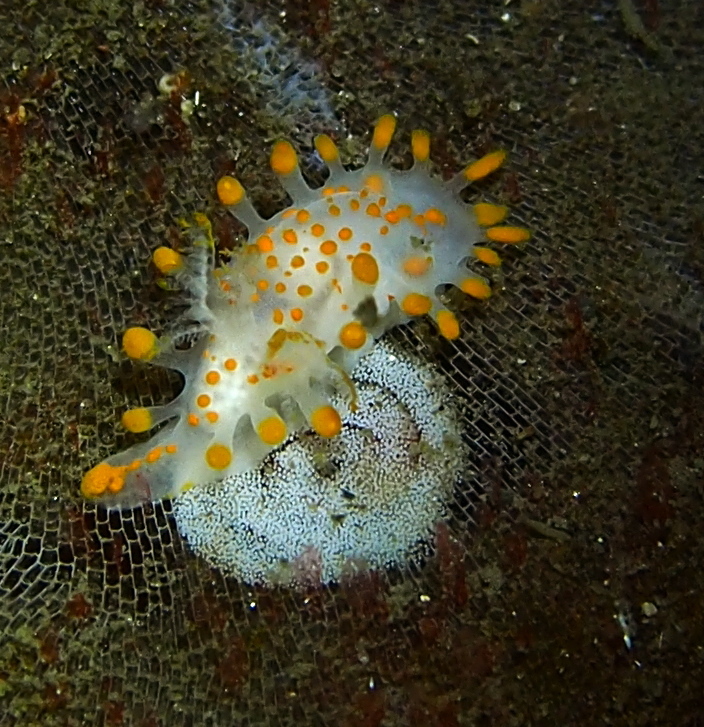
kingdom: Animalia
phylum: Mollusca
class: Gastropoda
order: Nudibranchia
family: Polyceridae
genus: Limacia
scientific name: Limacia clavigera
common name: Orange-clubbed sea slug
